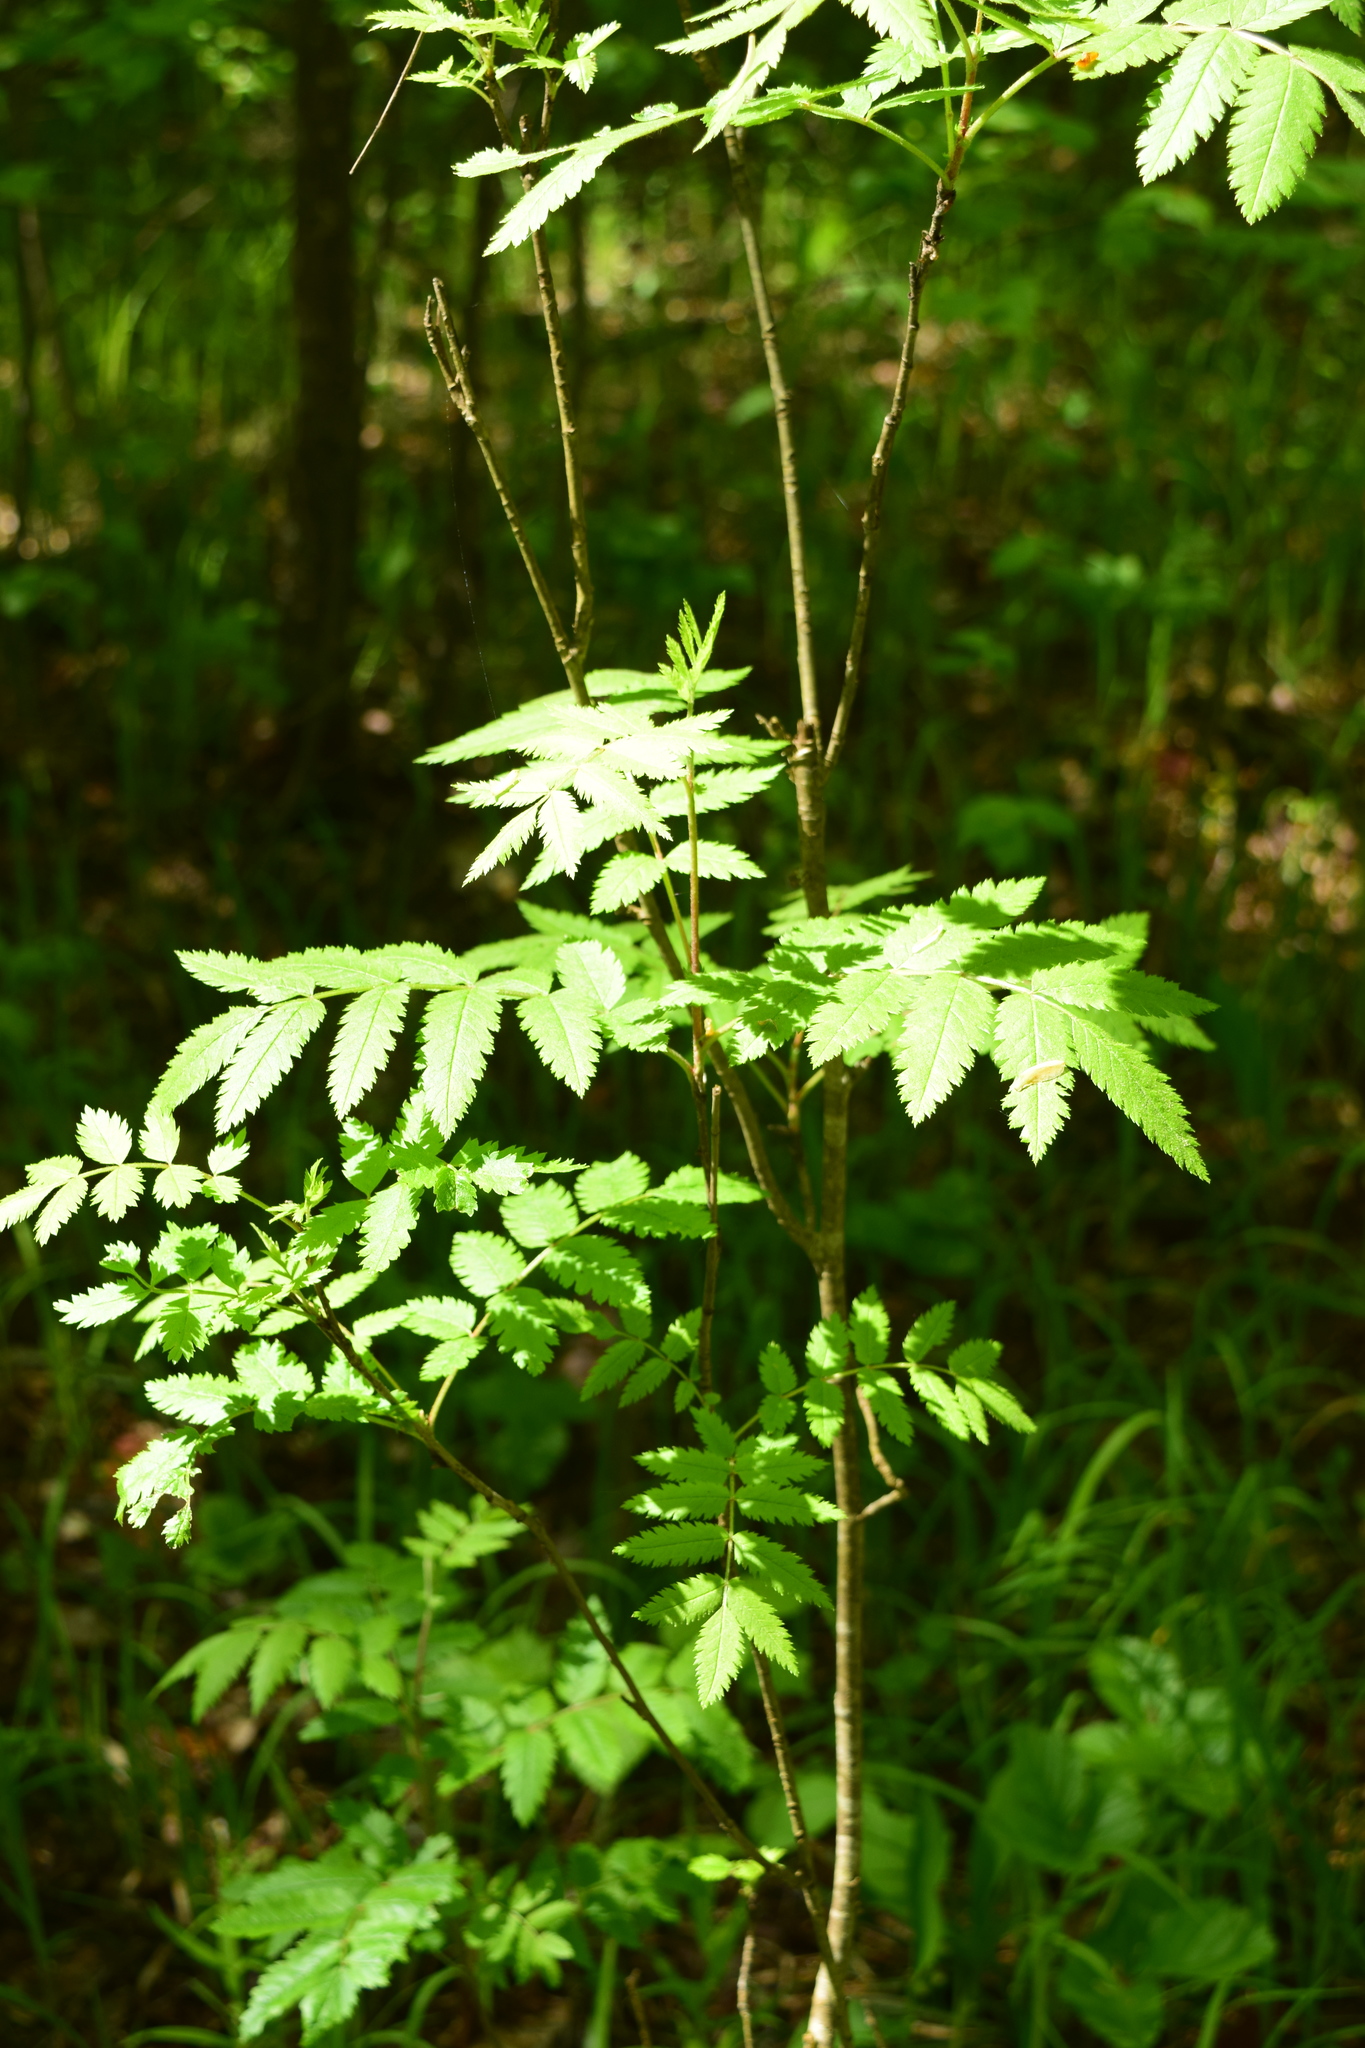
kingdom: Plantae
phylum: Tracheophyta
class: Magnoliopsida
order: Rosales
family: Rosaceae
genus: Sorbus
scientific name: Sorbus aucuparia
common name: Rowan
